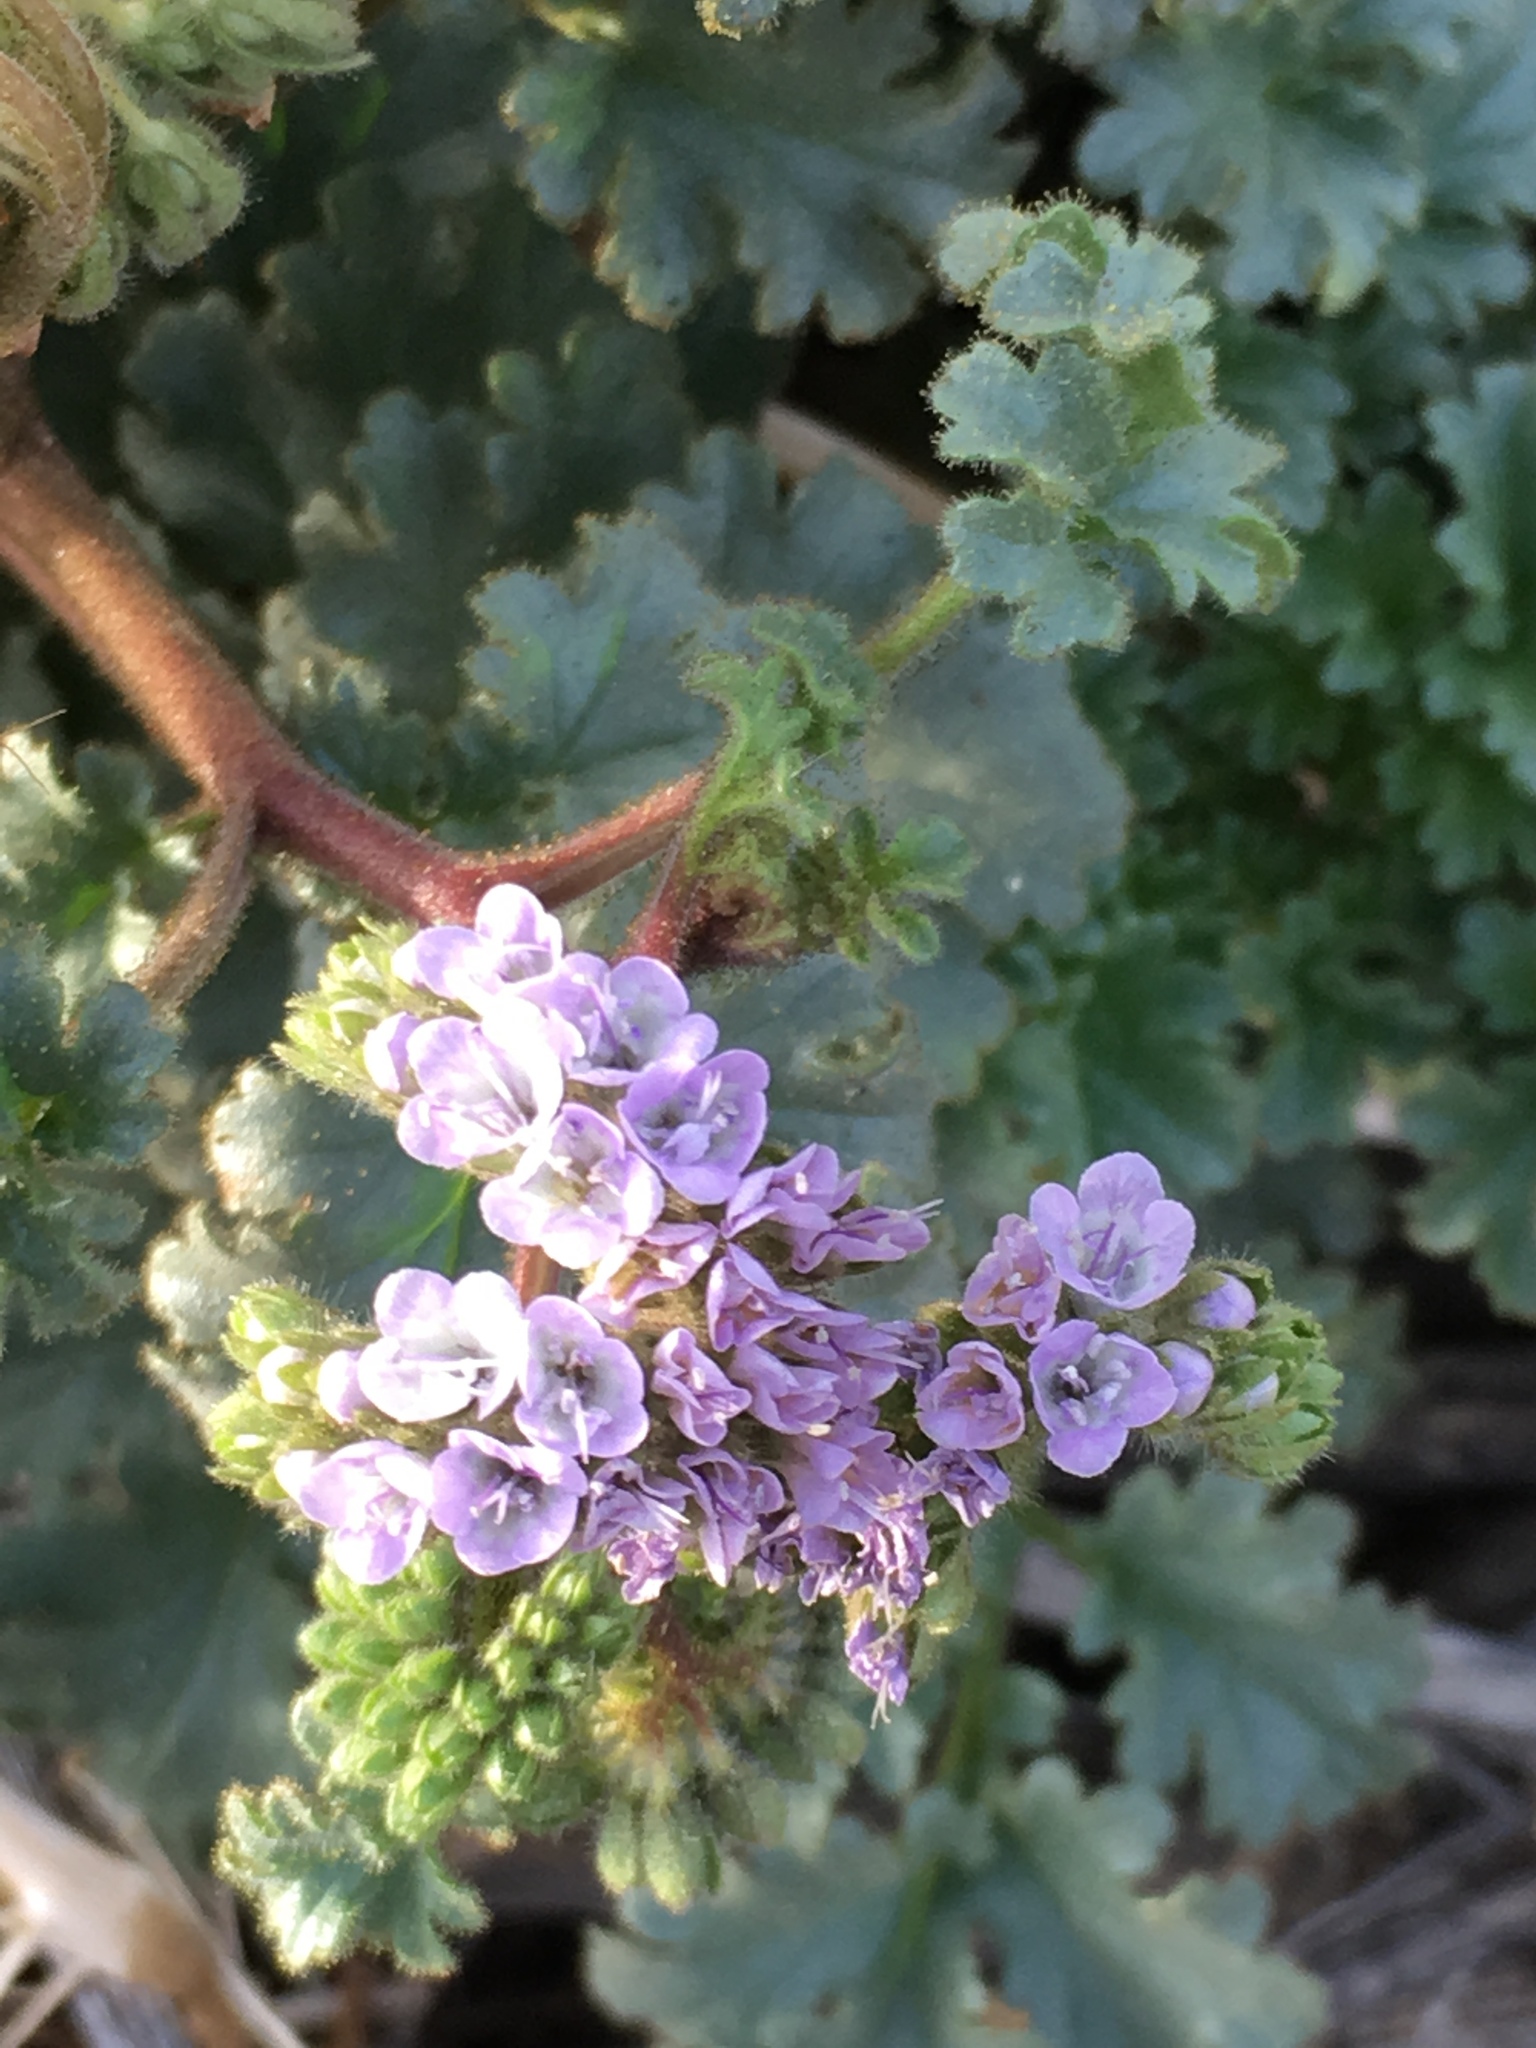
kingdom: Plantae
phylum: Tracheophyta
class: Magnoliopsida
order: Boraginales
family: Hydrophyllaceae
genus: Phacelia
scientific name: Phacelia pedicellata
